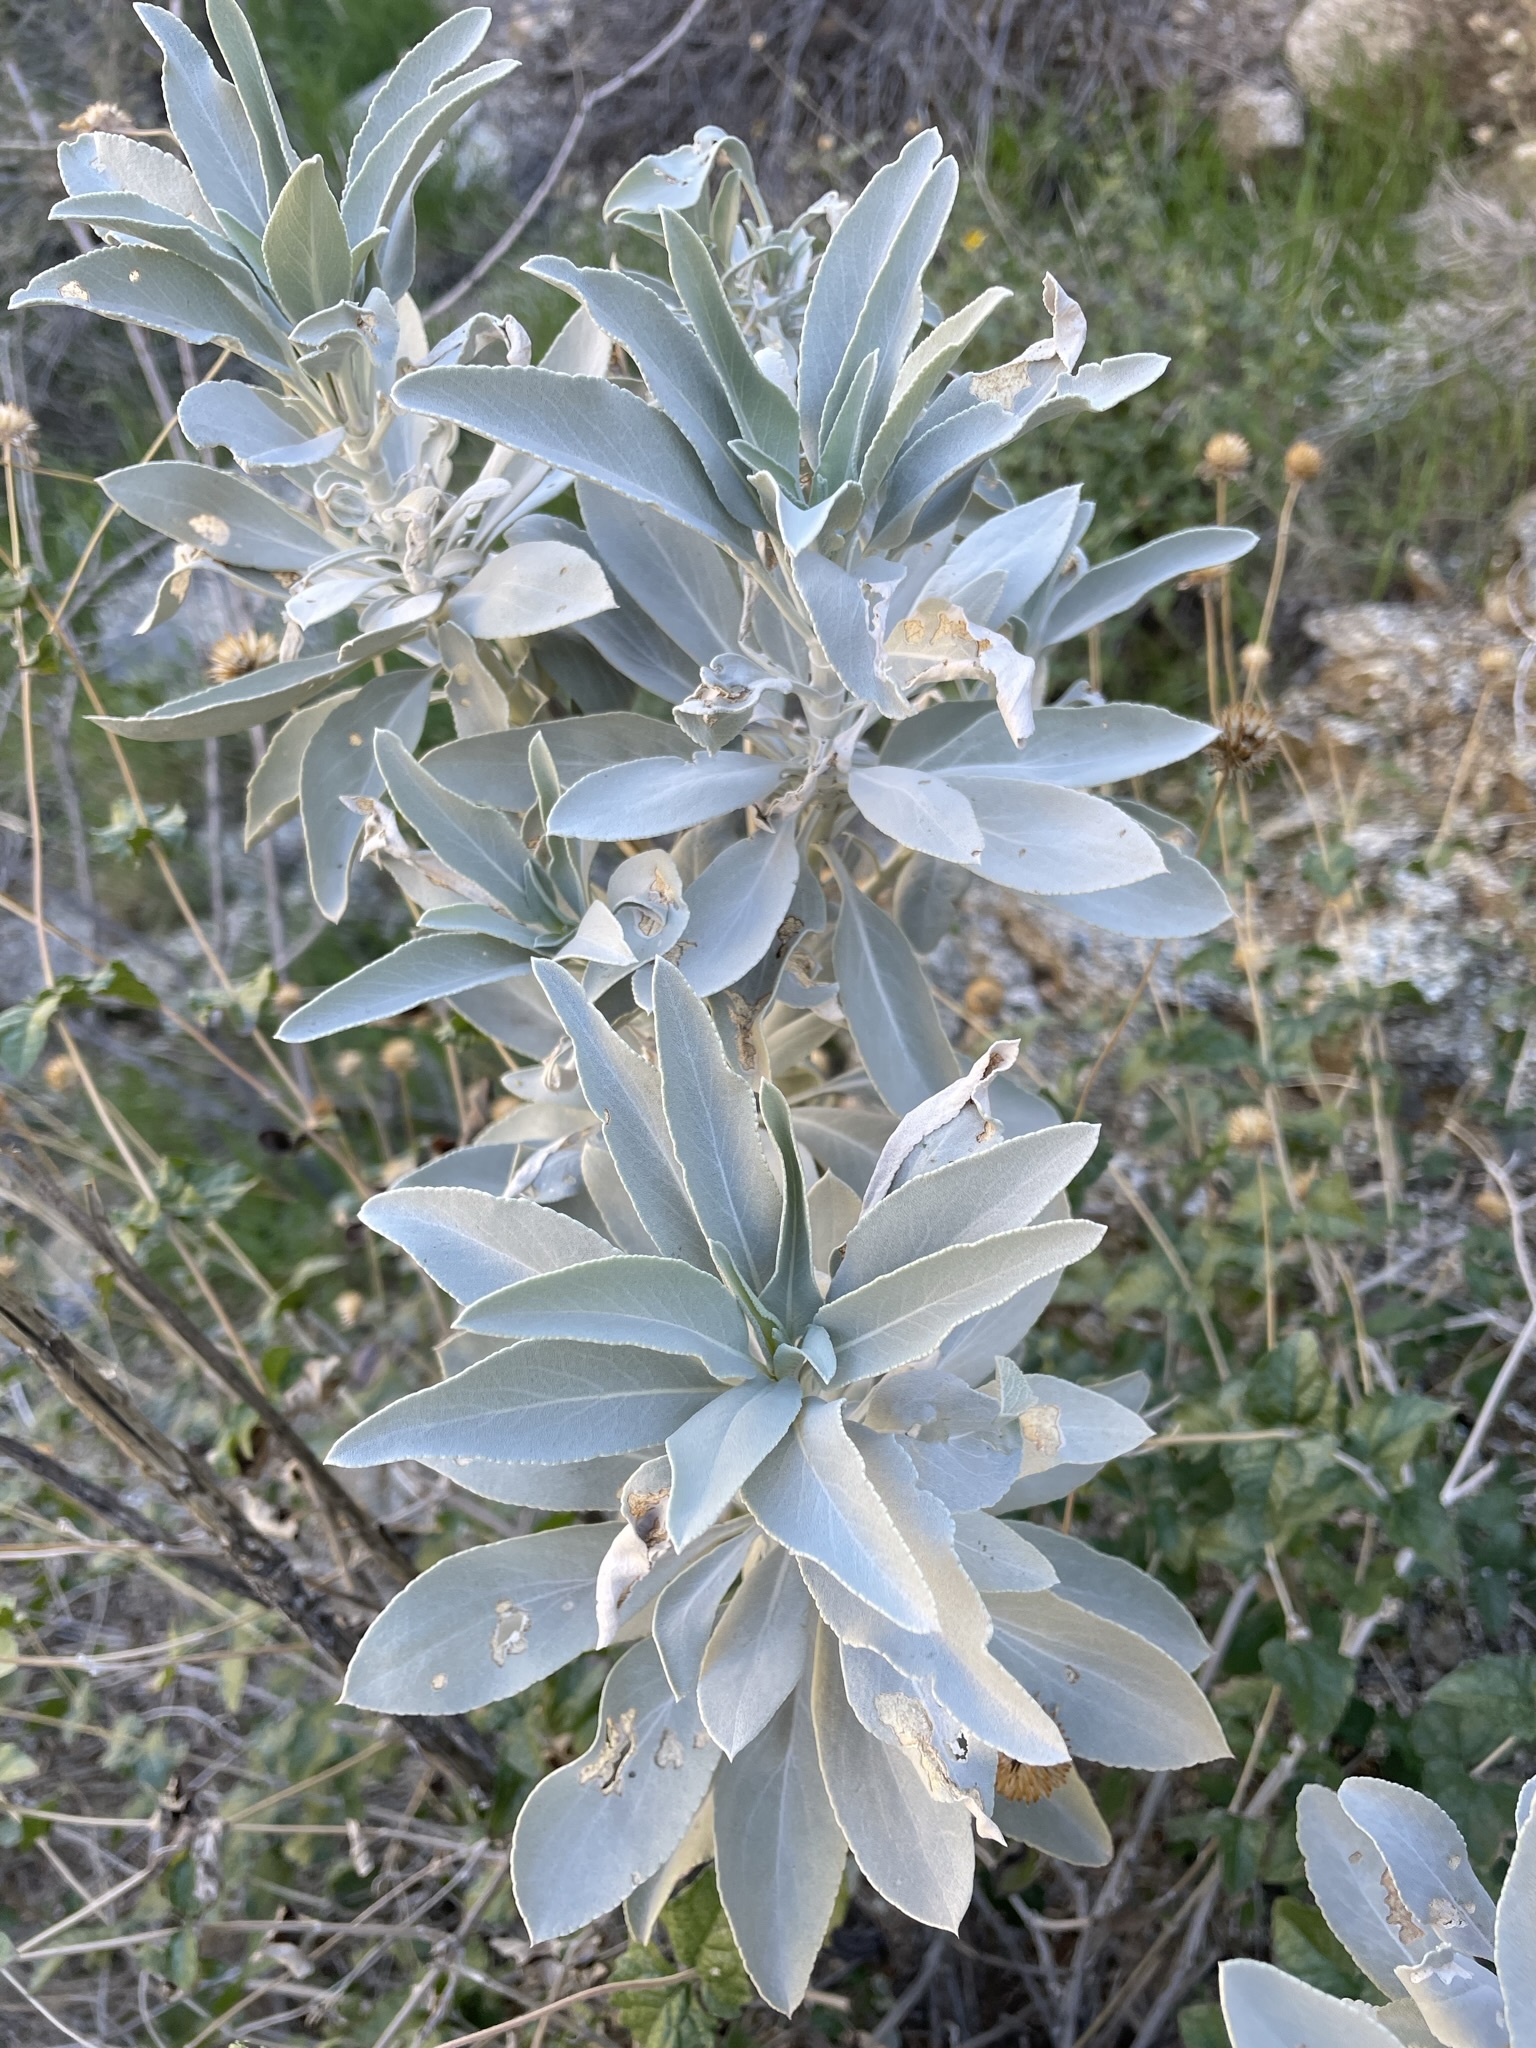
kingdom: Plantae
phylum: Tracheophyta
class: Magnoliopsida
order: Lamiales
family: Lamiaceae
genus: Salvia
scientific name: Salvia apiana
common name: White sage
